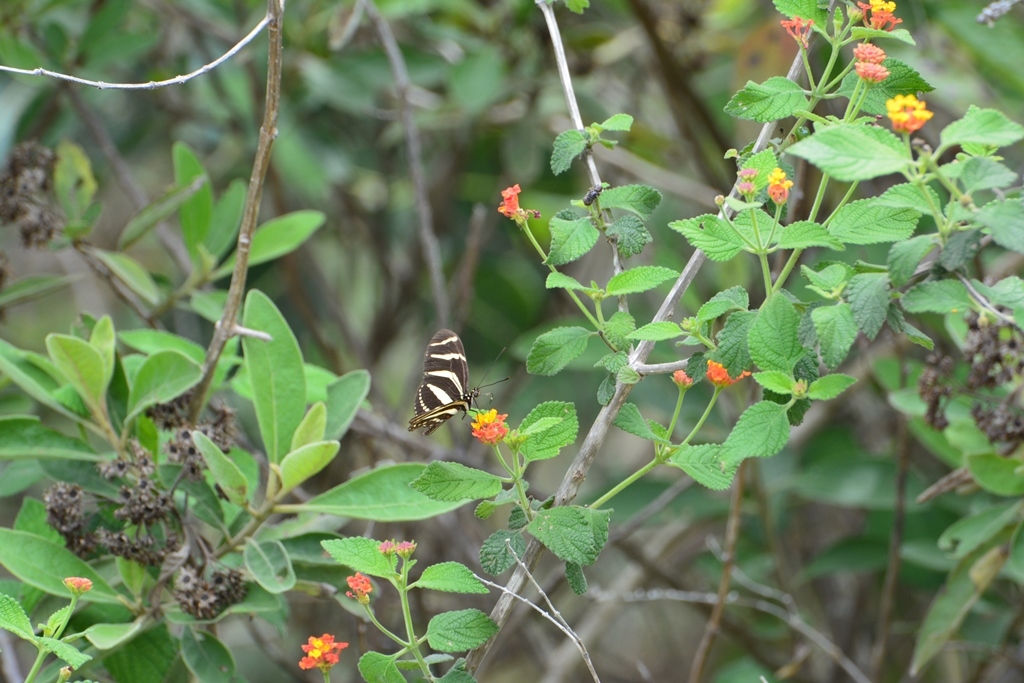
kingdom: Animalia
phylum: Arthropoda
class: Insecta
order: Lepidoptera
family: Nymphalidae
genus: Heliconius
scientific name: Heliconius charithonia
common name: Zebra long wing
